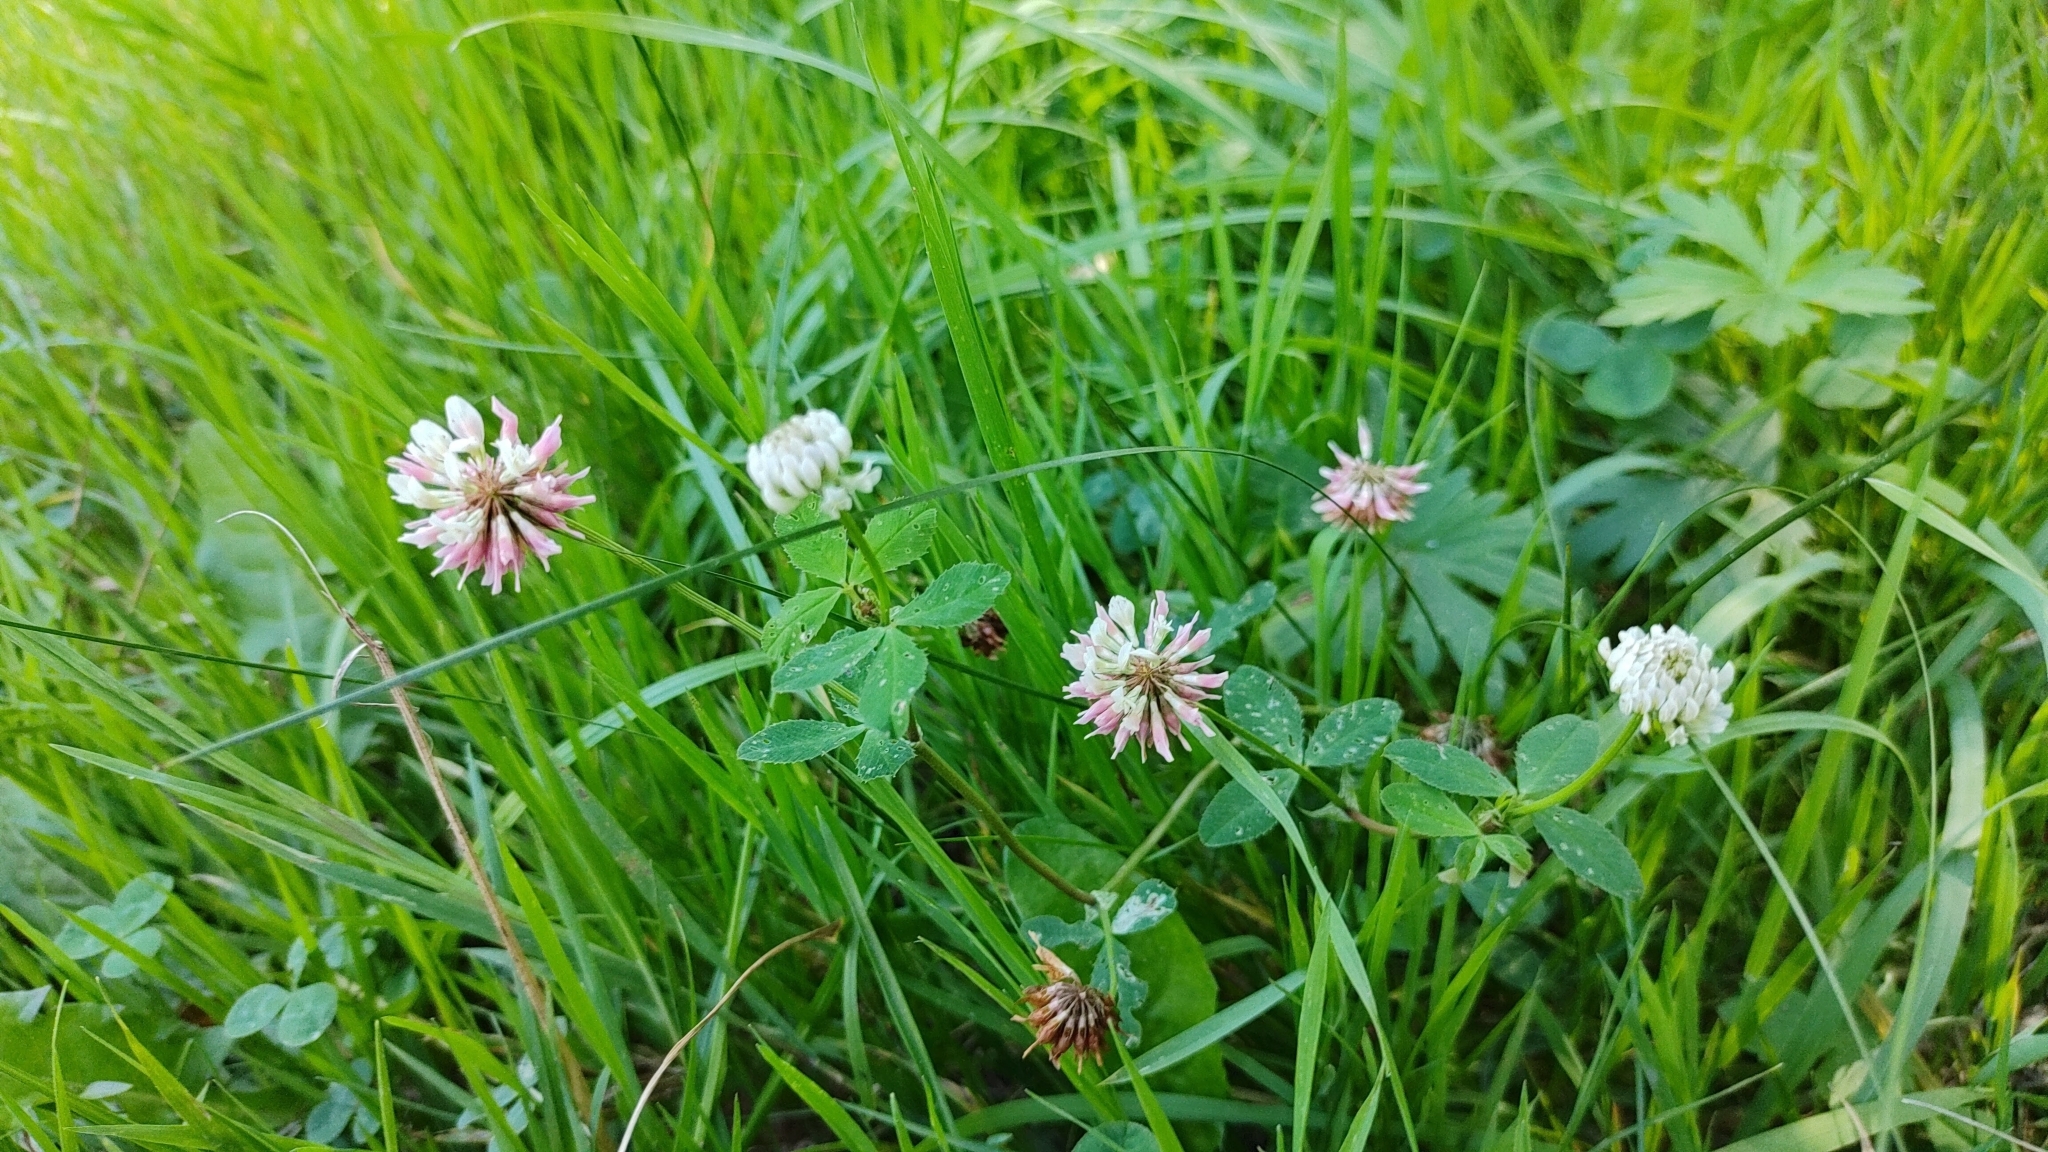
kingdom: Plantae
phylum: Tracheophyta
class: Magnoliopsida
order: Fabales
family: Fabaceae
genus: Trifolium
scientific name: Trifolium hybridum
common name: Alsike clover
